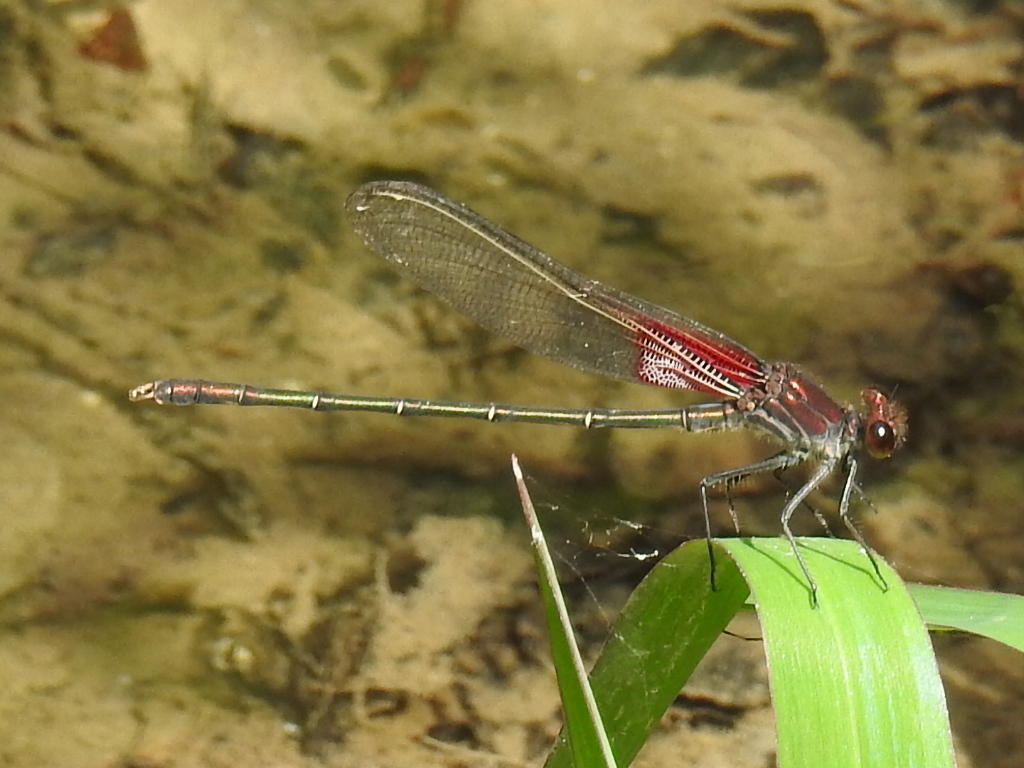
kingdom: Animalia
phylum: Arthropoda
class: Insecta
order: Odonata
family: Calopterygidae
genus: Hetaerina
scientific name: Hetaerina americana
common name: American rubyspot
